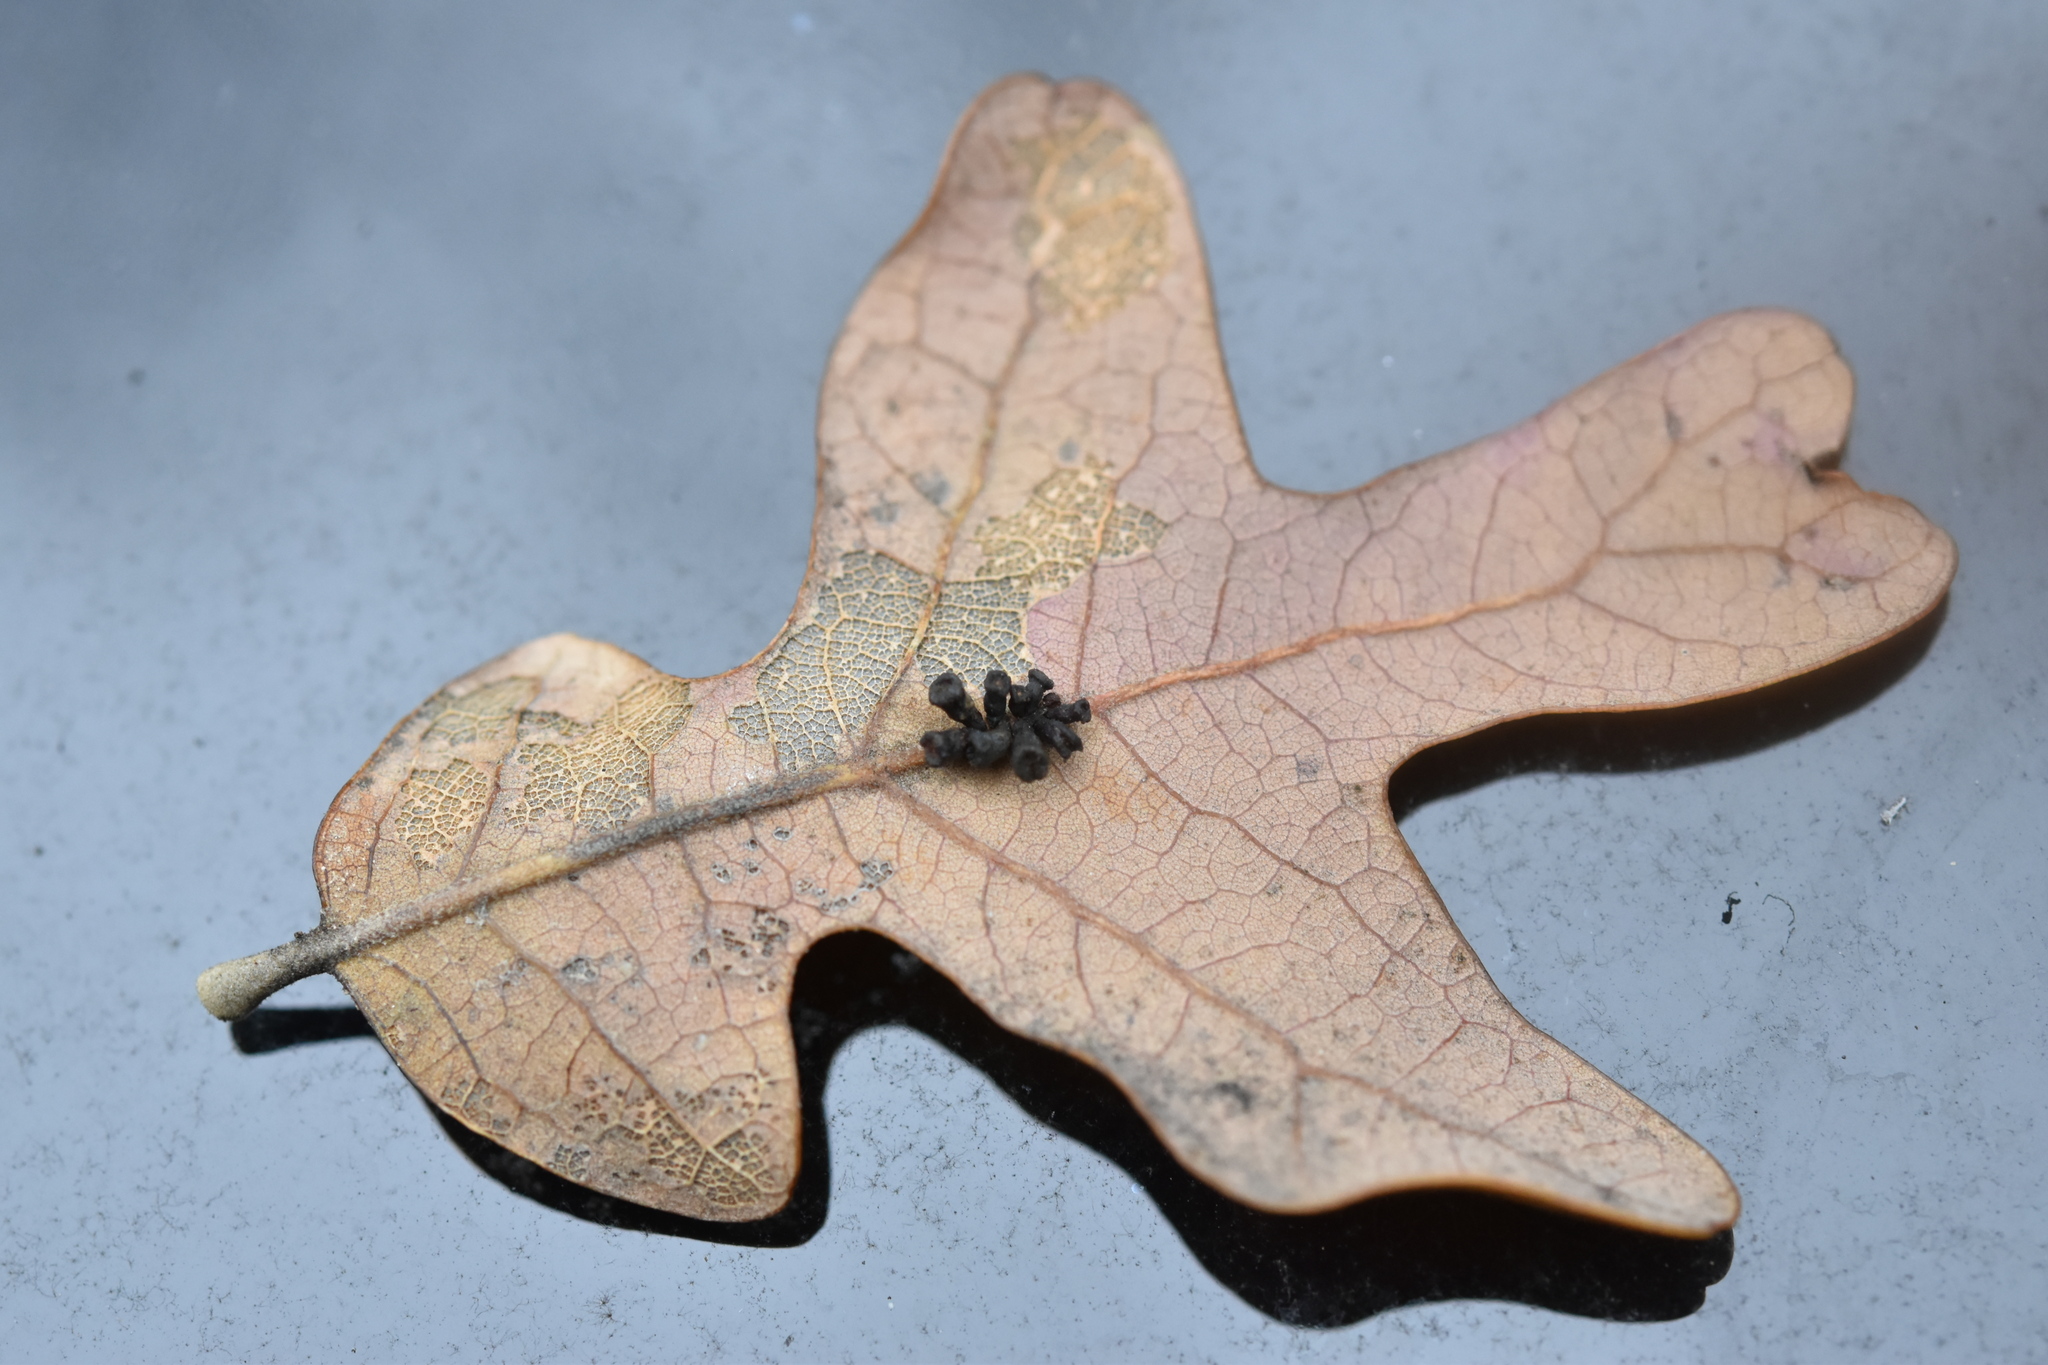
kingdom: Animalia
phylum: Arthropoda
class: Insecta
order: Hymenoptera
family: Cynipidae
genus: Andricus
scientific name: Andricus lustrans
